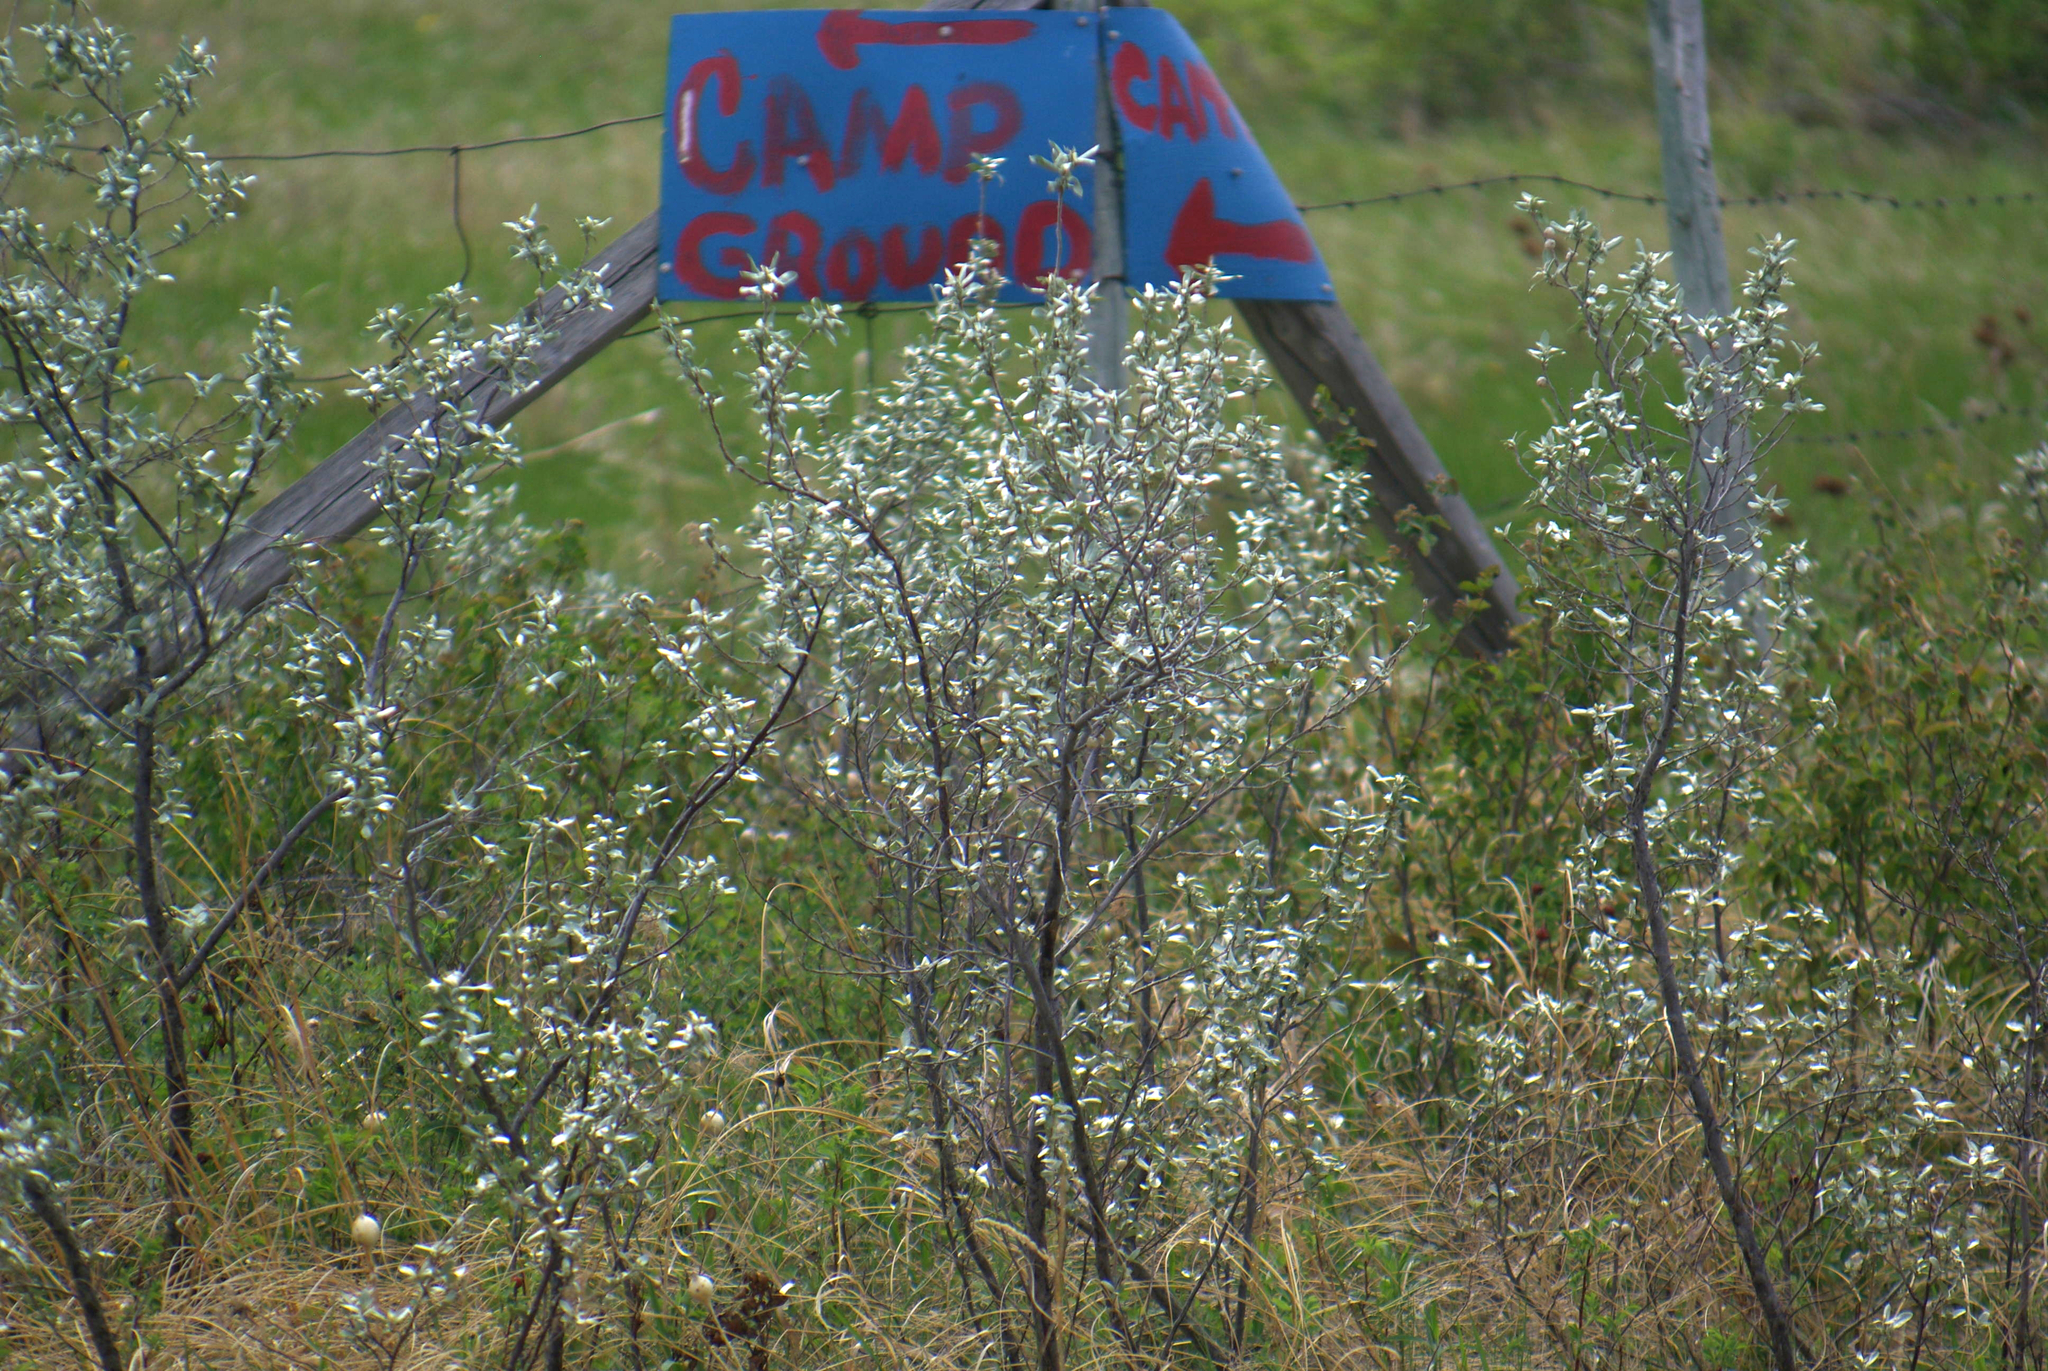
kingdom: Plantae
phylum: Tracheophyta
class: Magnoliopsida
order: Rosales
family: Elaeagnaceae
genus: Elaeagnus
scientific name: Elaeagnus commutata
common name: Silverberry
